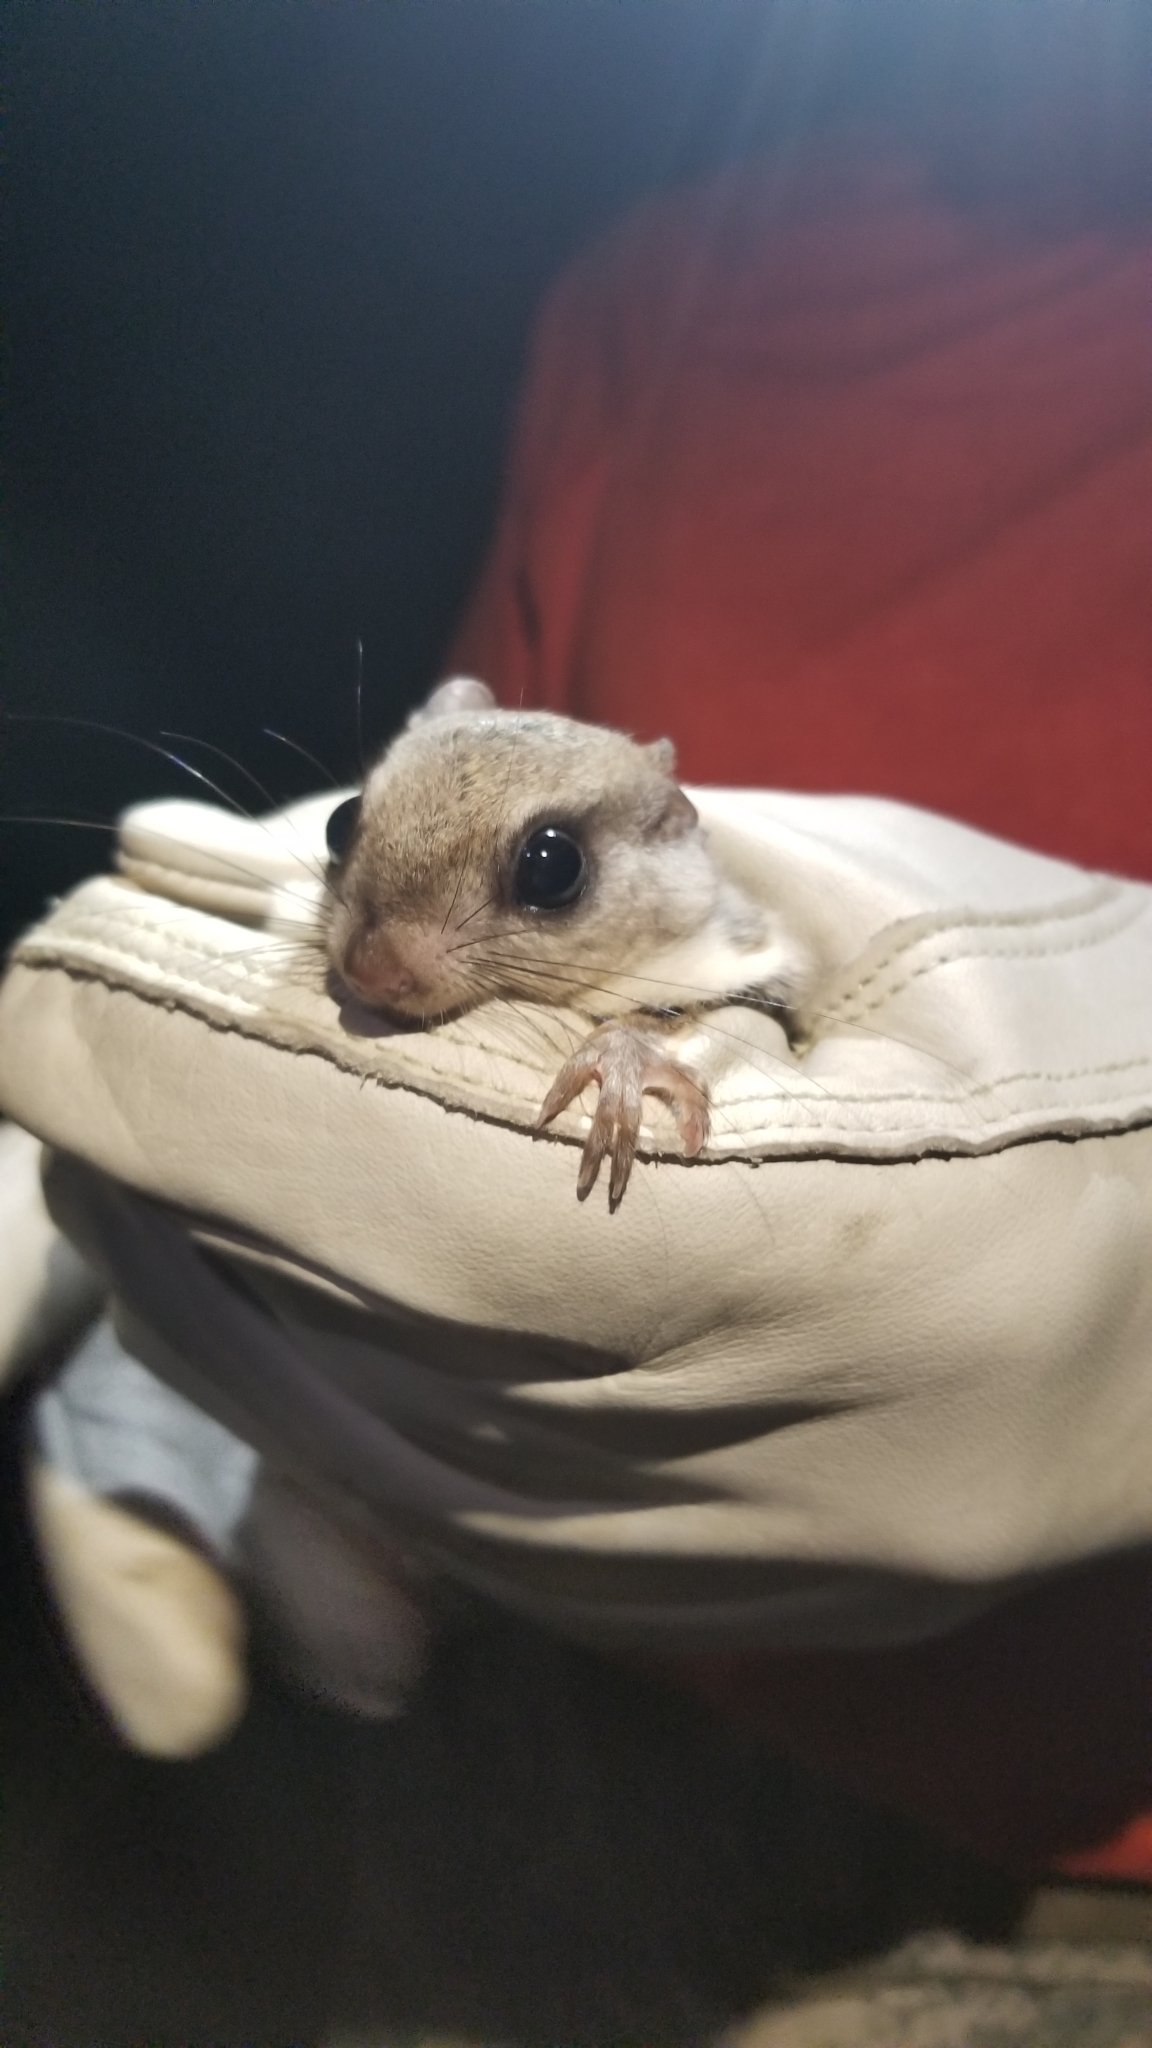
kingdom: Animalia
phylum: Chordata
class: Mammalia
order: Rodentia
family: Sciuridae
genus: Glaucomys
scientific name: Glaucomys volans
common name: Southern flying squirrel
